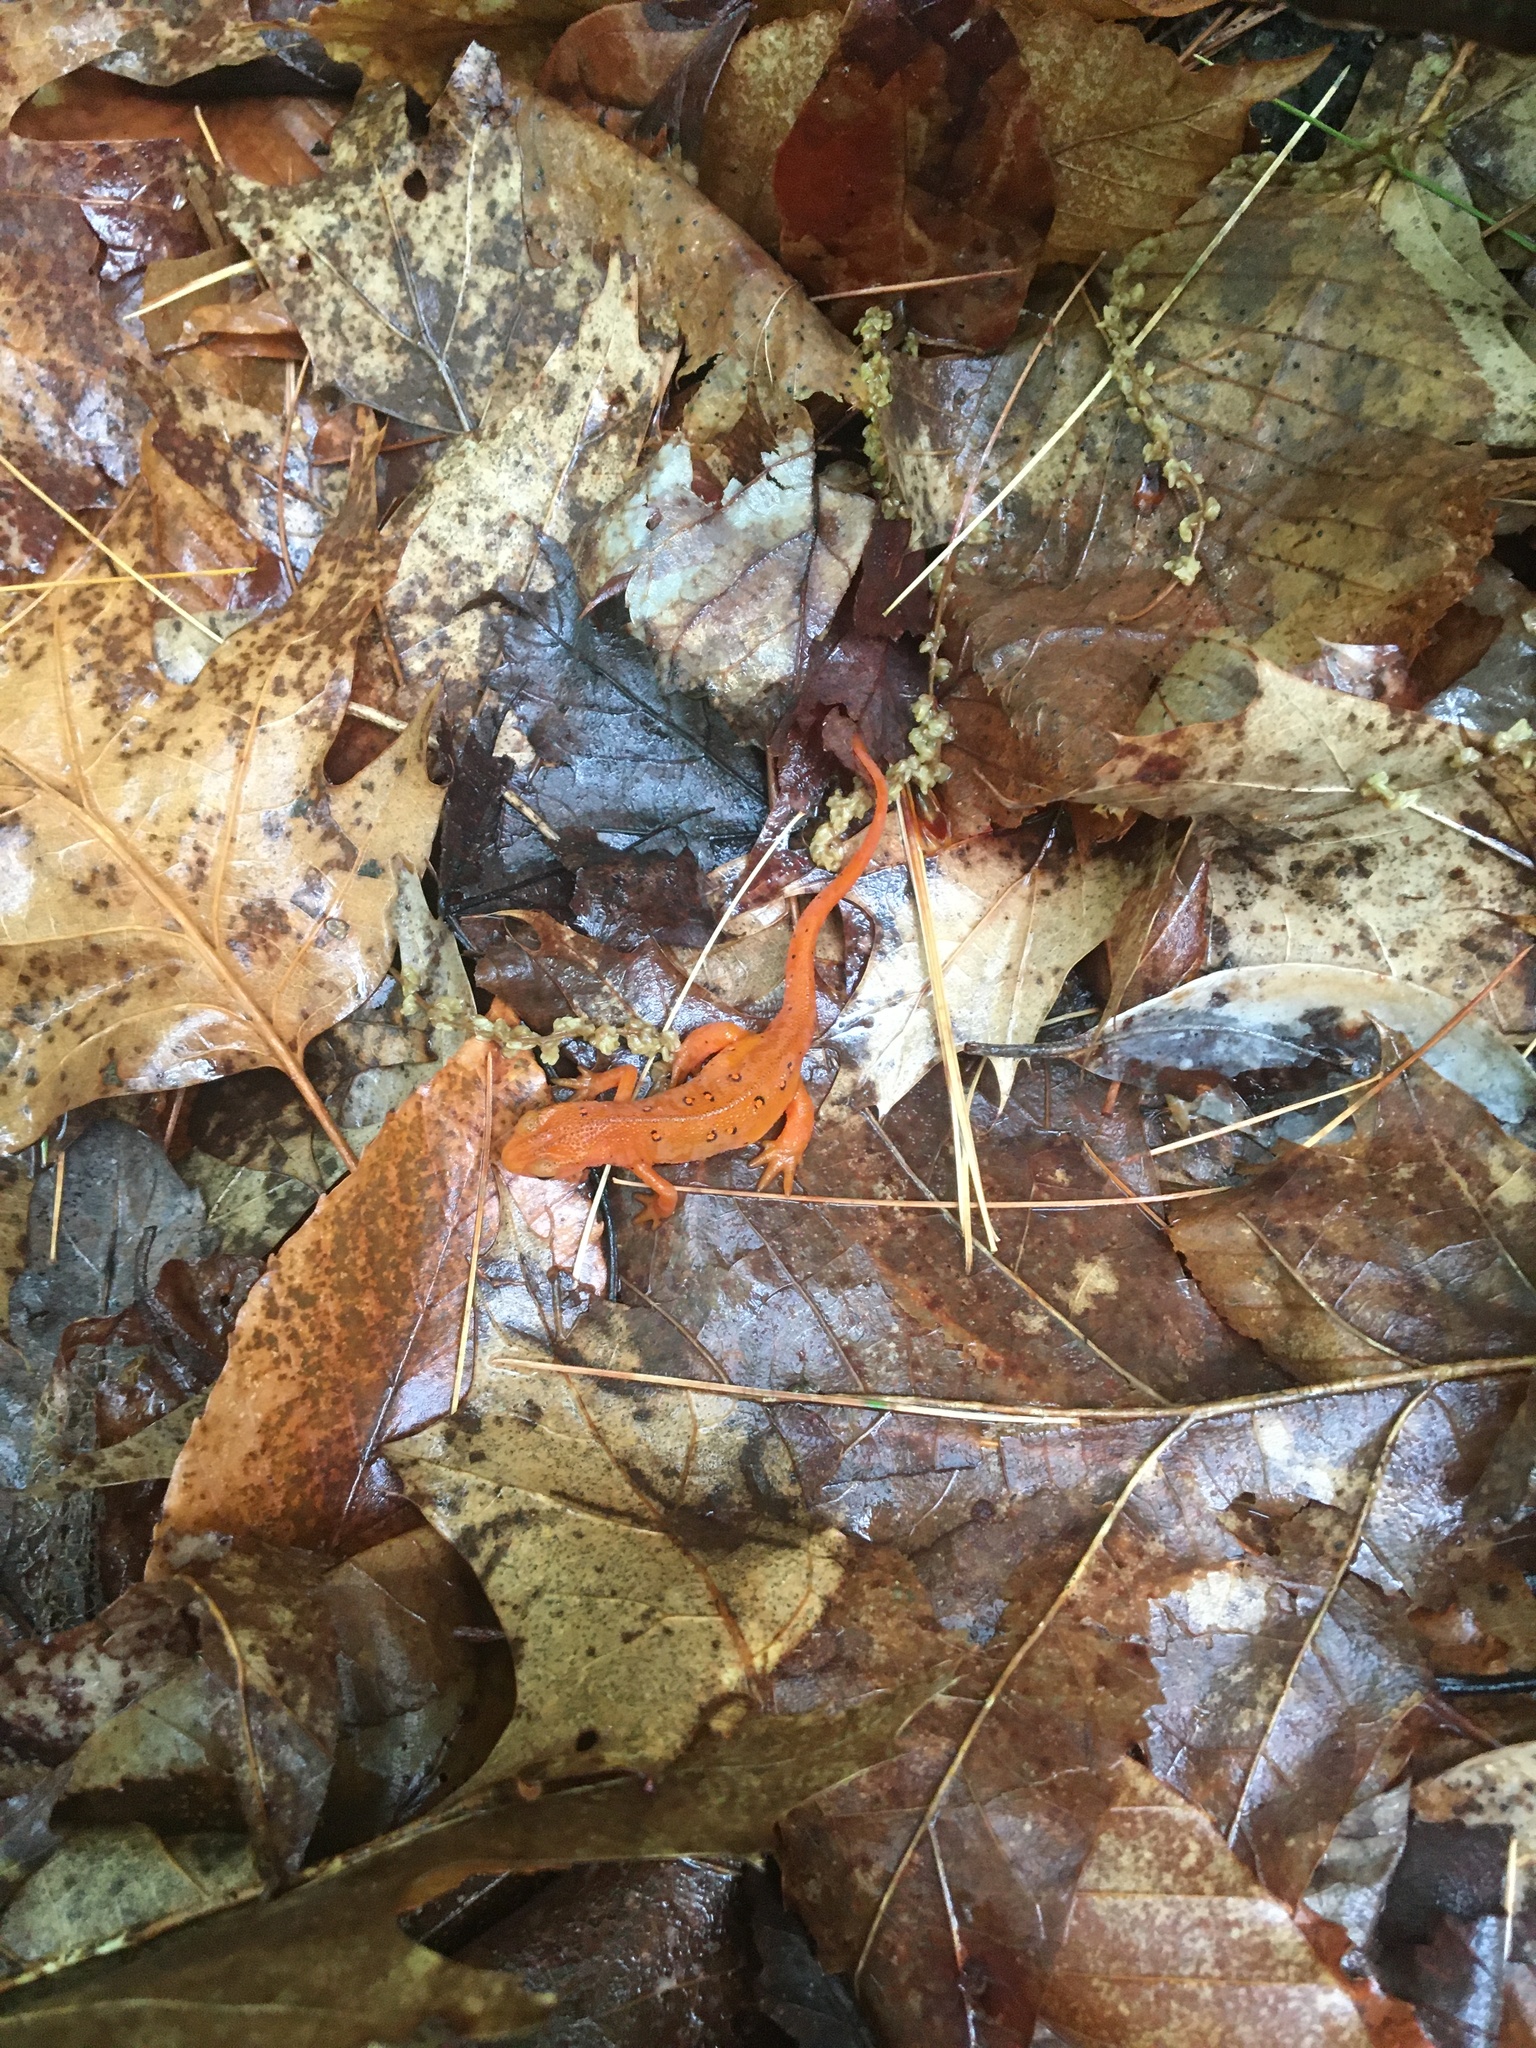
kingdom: Animalia
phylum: Chordata
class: Amphibia
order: Caudata
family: Salamandridae
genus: Notophthalmus
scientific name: Notophthalmus viridescens
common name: Eastern newt
